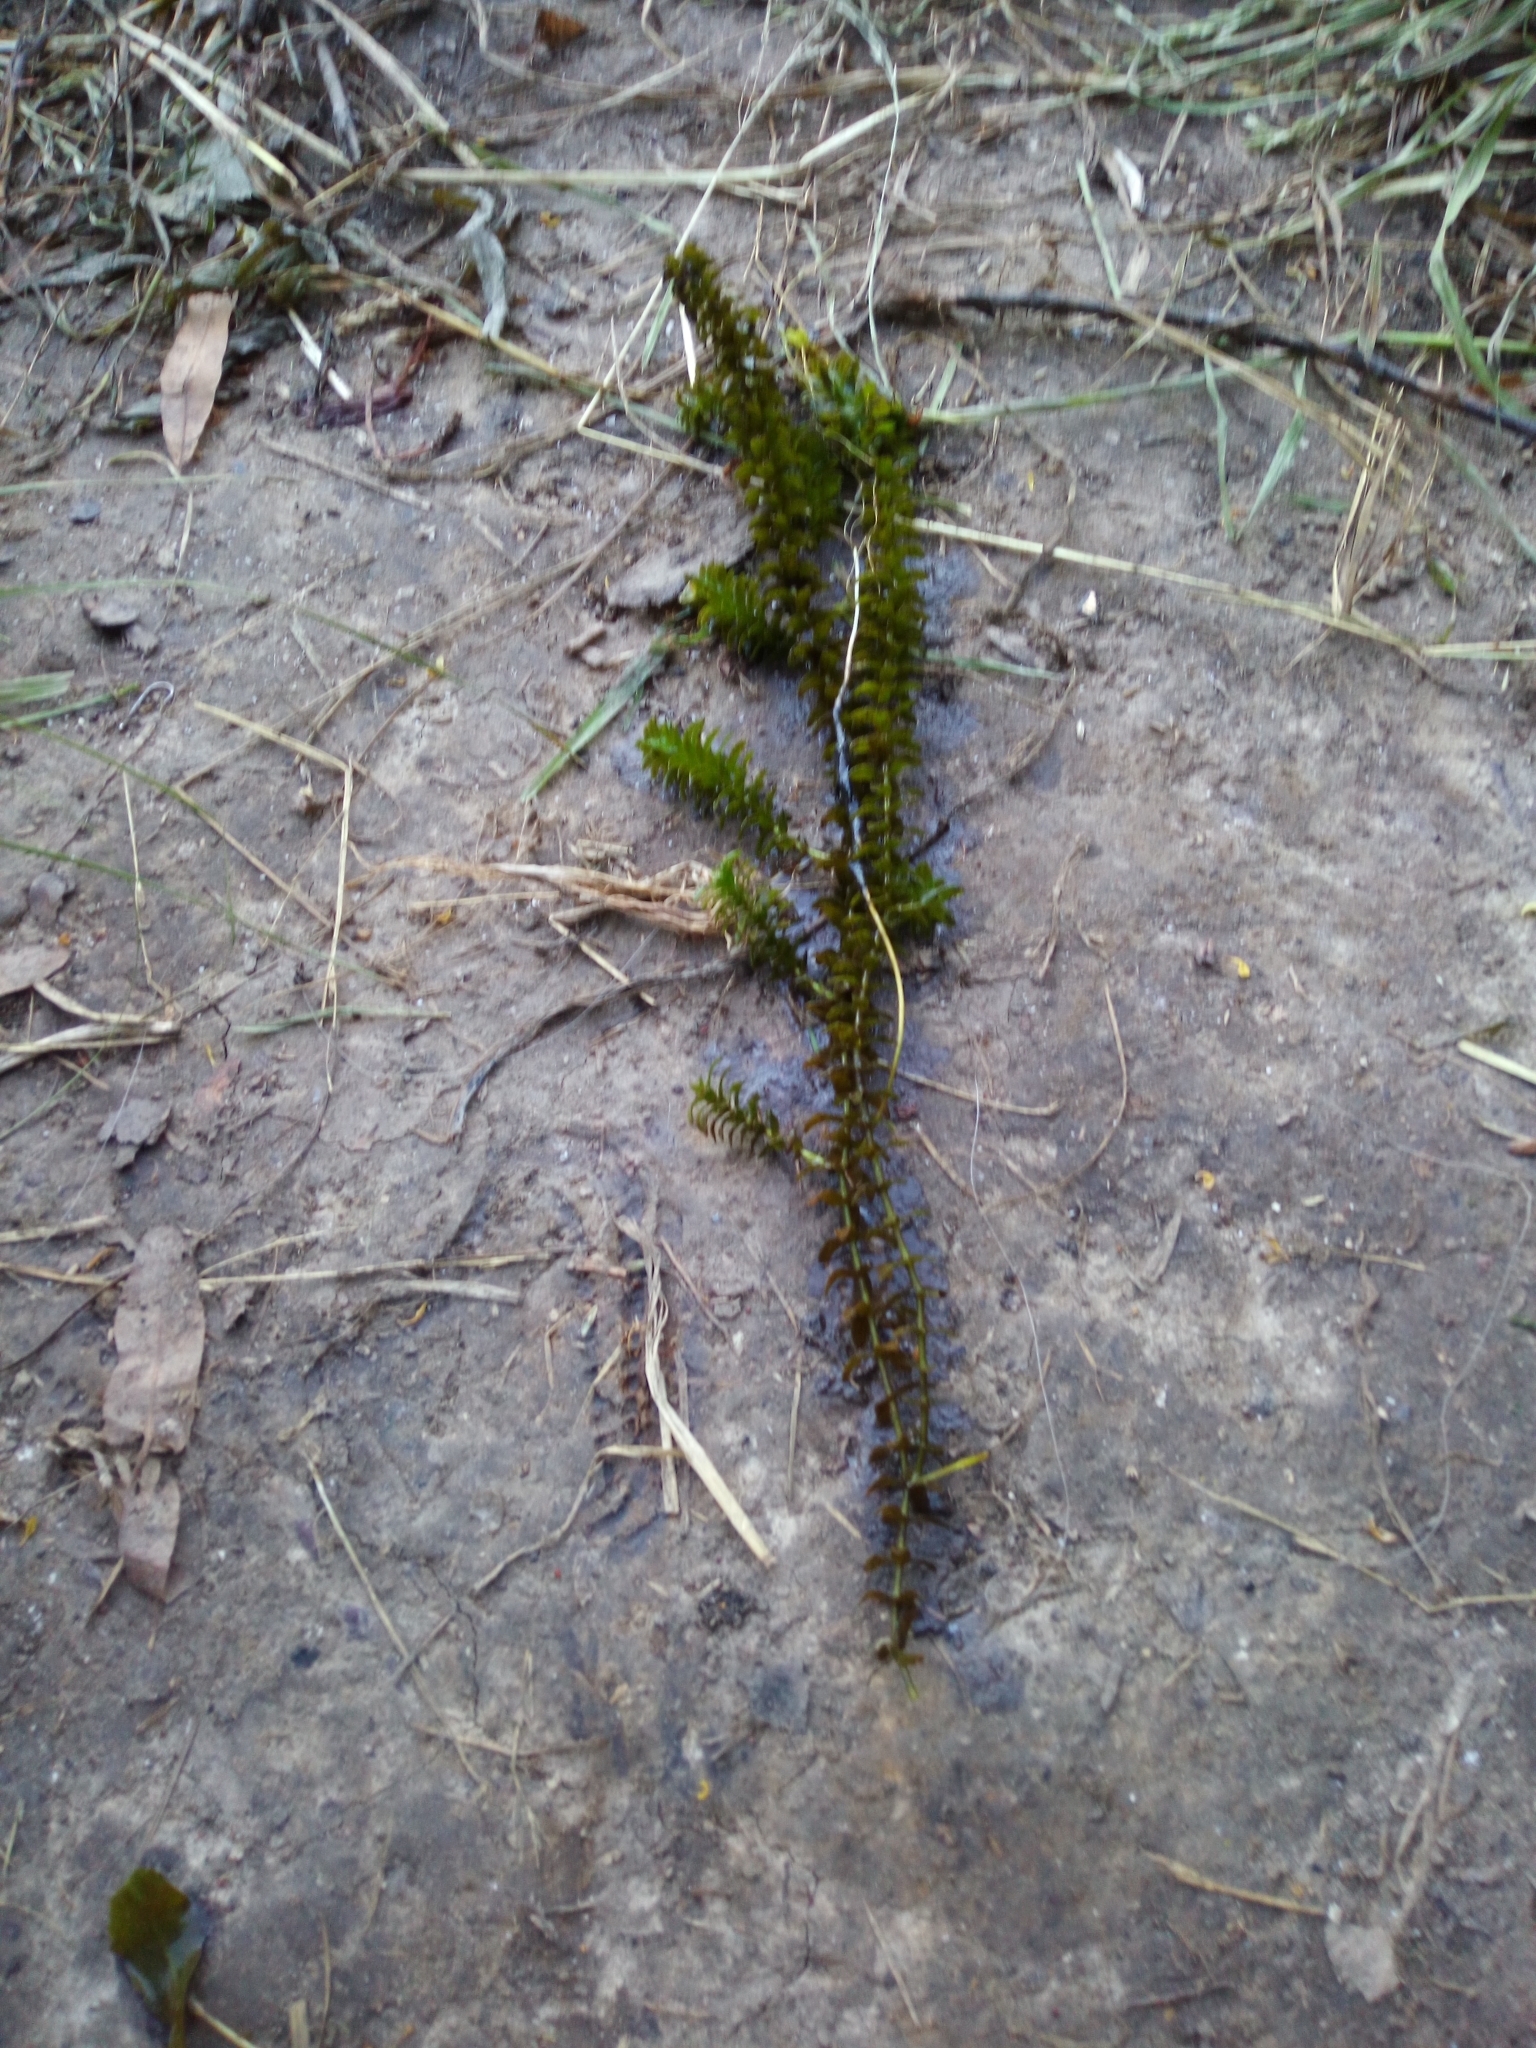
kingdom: Plantae
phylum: Tracheophyta
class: Liliopsida
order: Alismatales
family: Hydrocharitaceae
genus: Elodea
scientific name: Elodea canadensis
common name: Canadian waterweed
